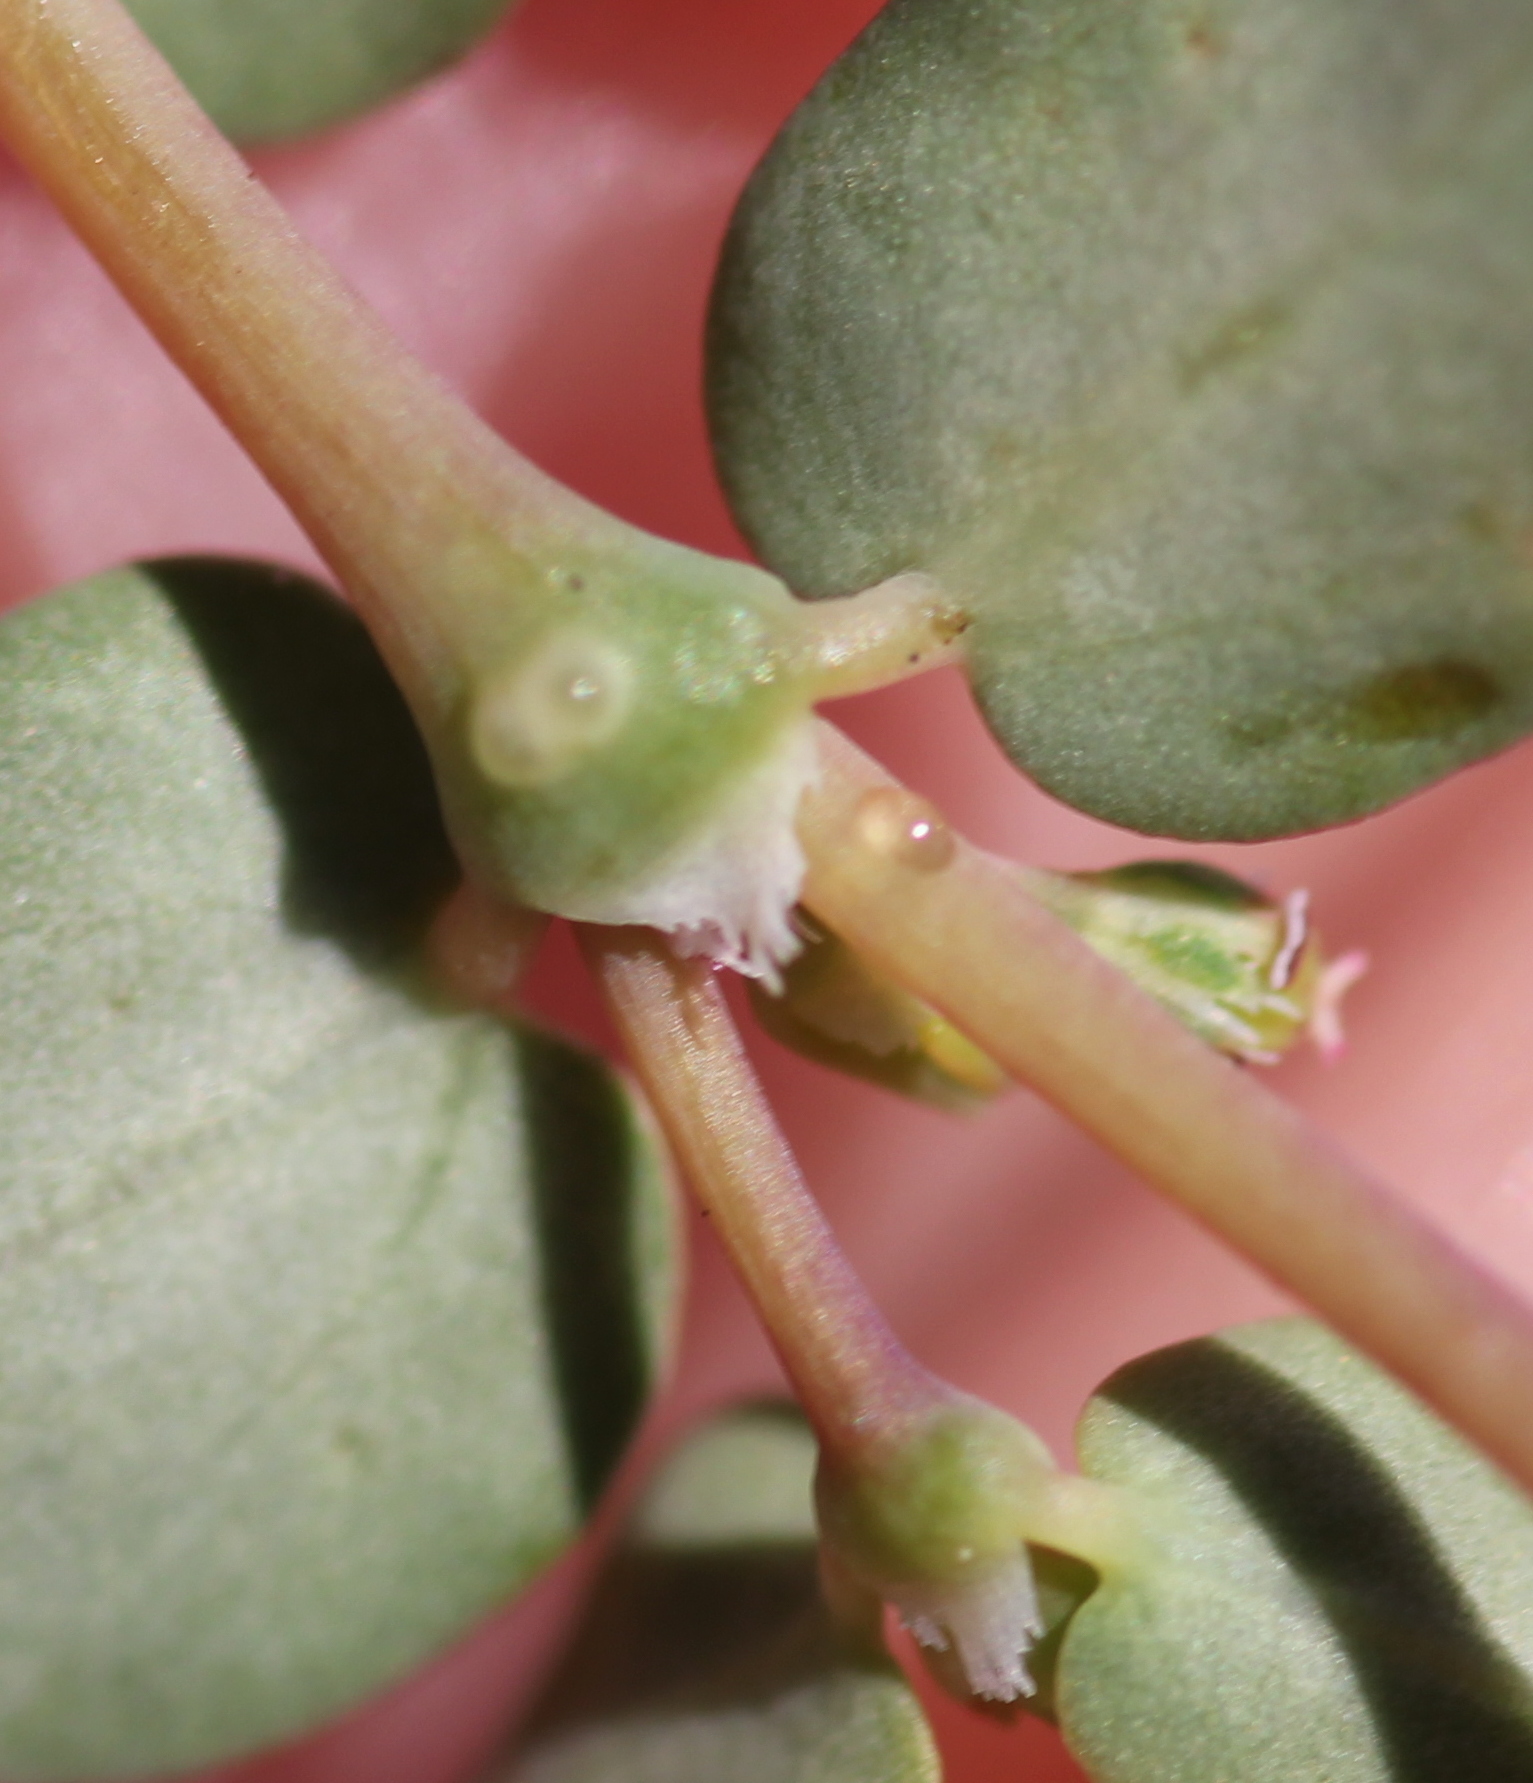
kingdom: Plantae
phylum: Tracheophyta
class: Magnoliopsida
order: Malpighiales
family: Euphorbiaceae
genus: Euphorbia
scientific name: Euphorbia serpens
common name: Matted sandmat
